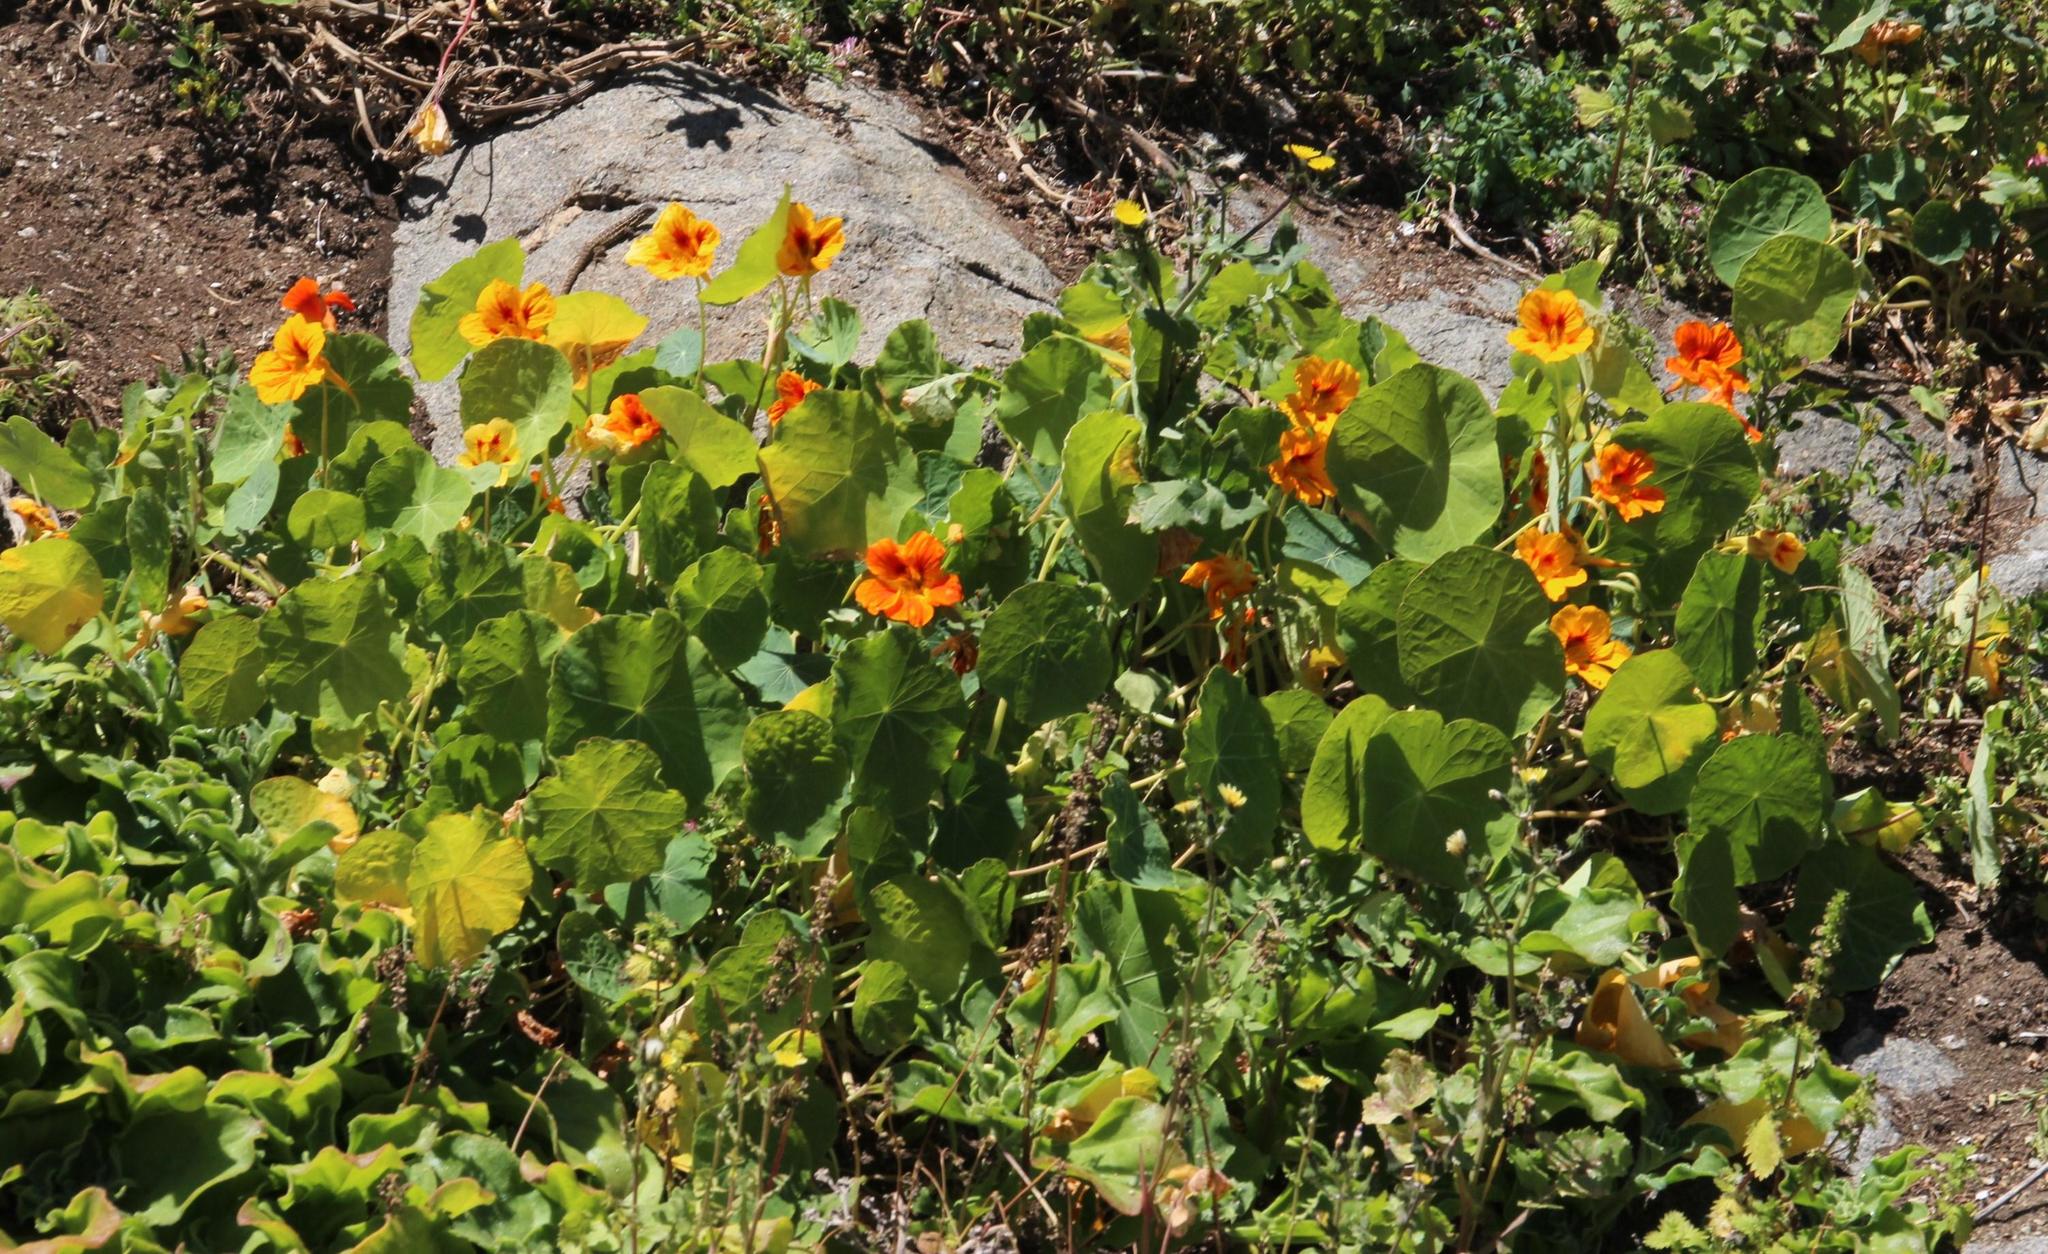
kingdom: Plantae
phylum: Tracheophyta
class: Magnoliopsida
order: Brassicales
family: Tropaeolaceae
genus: Tropaeolum
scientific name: Tropaeolum majus
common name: Nasturtium
